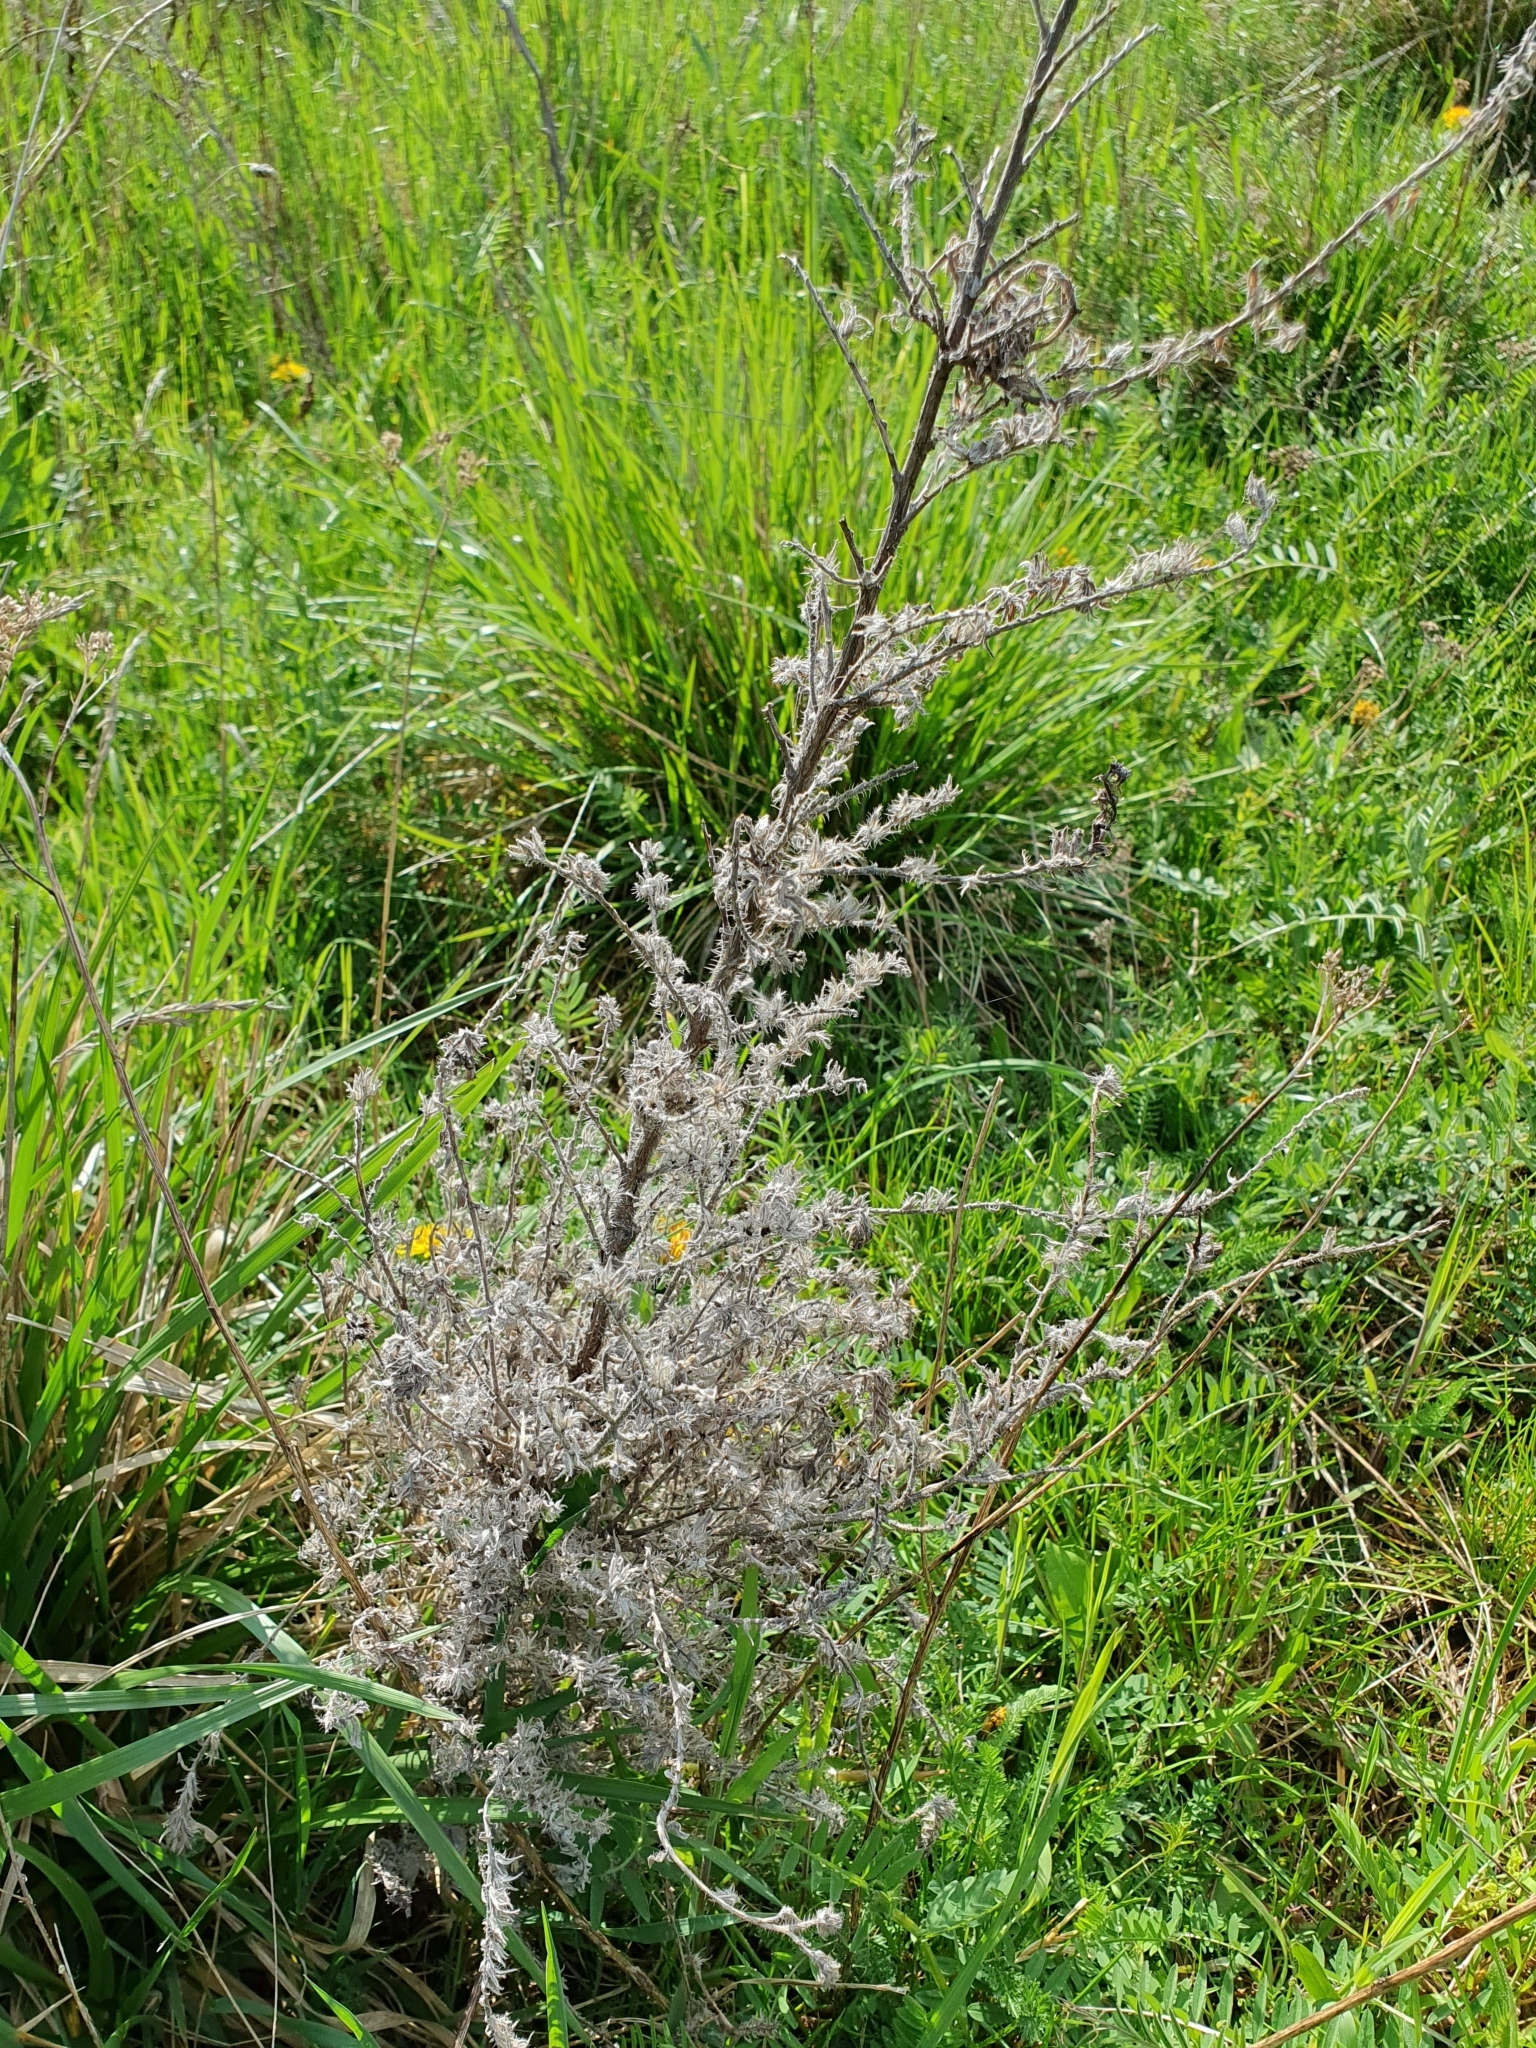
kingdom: Plantae
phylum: Tracheophyta
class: Magnoliopsida
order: Boraginales
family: Boraginaceae
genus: Echium
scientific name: Echium vulgare
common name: Common viper's bugloss
